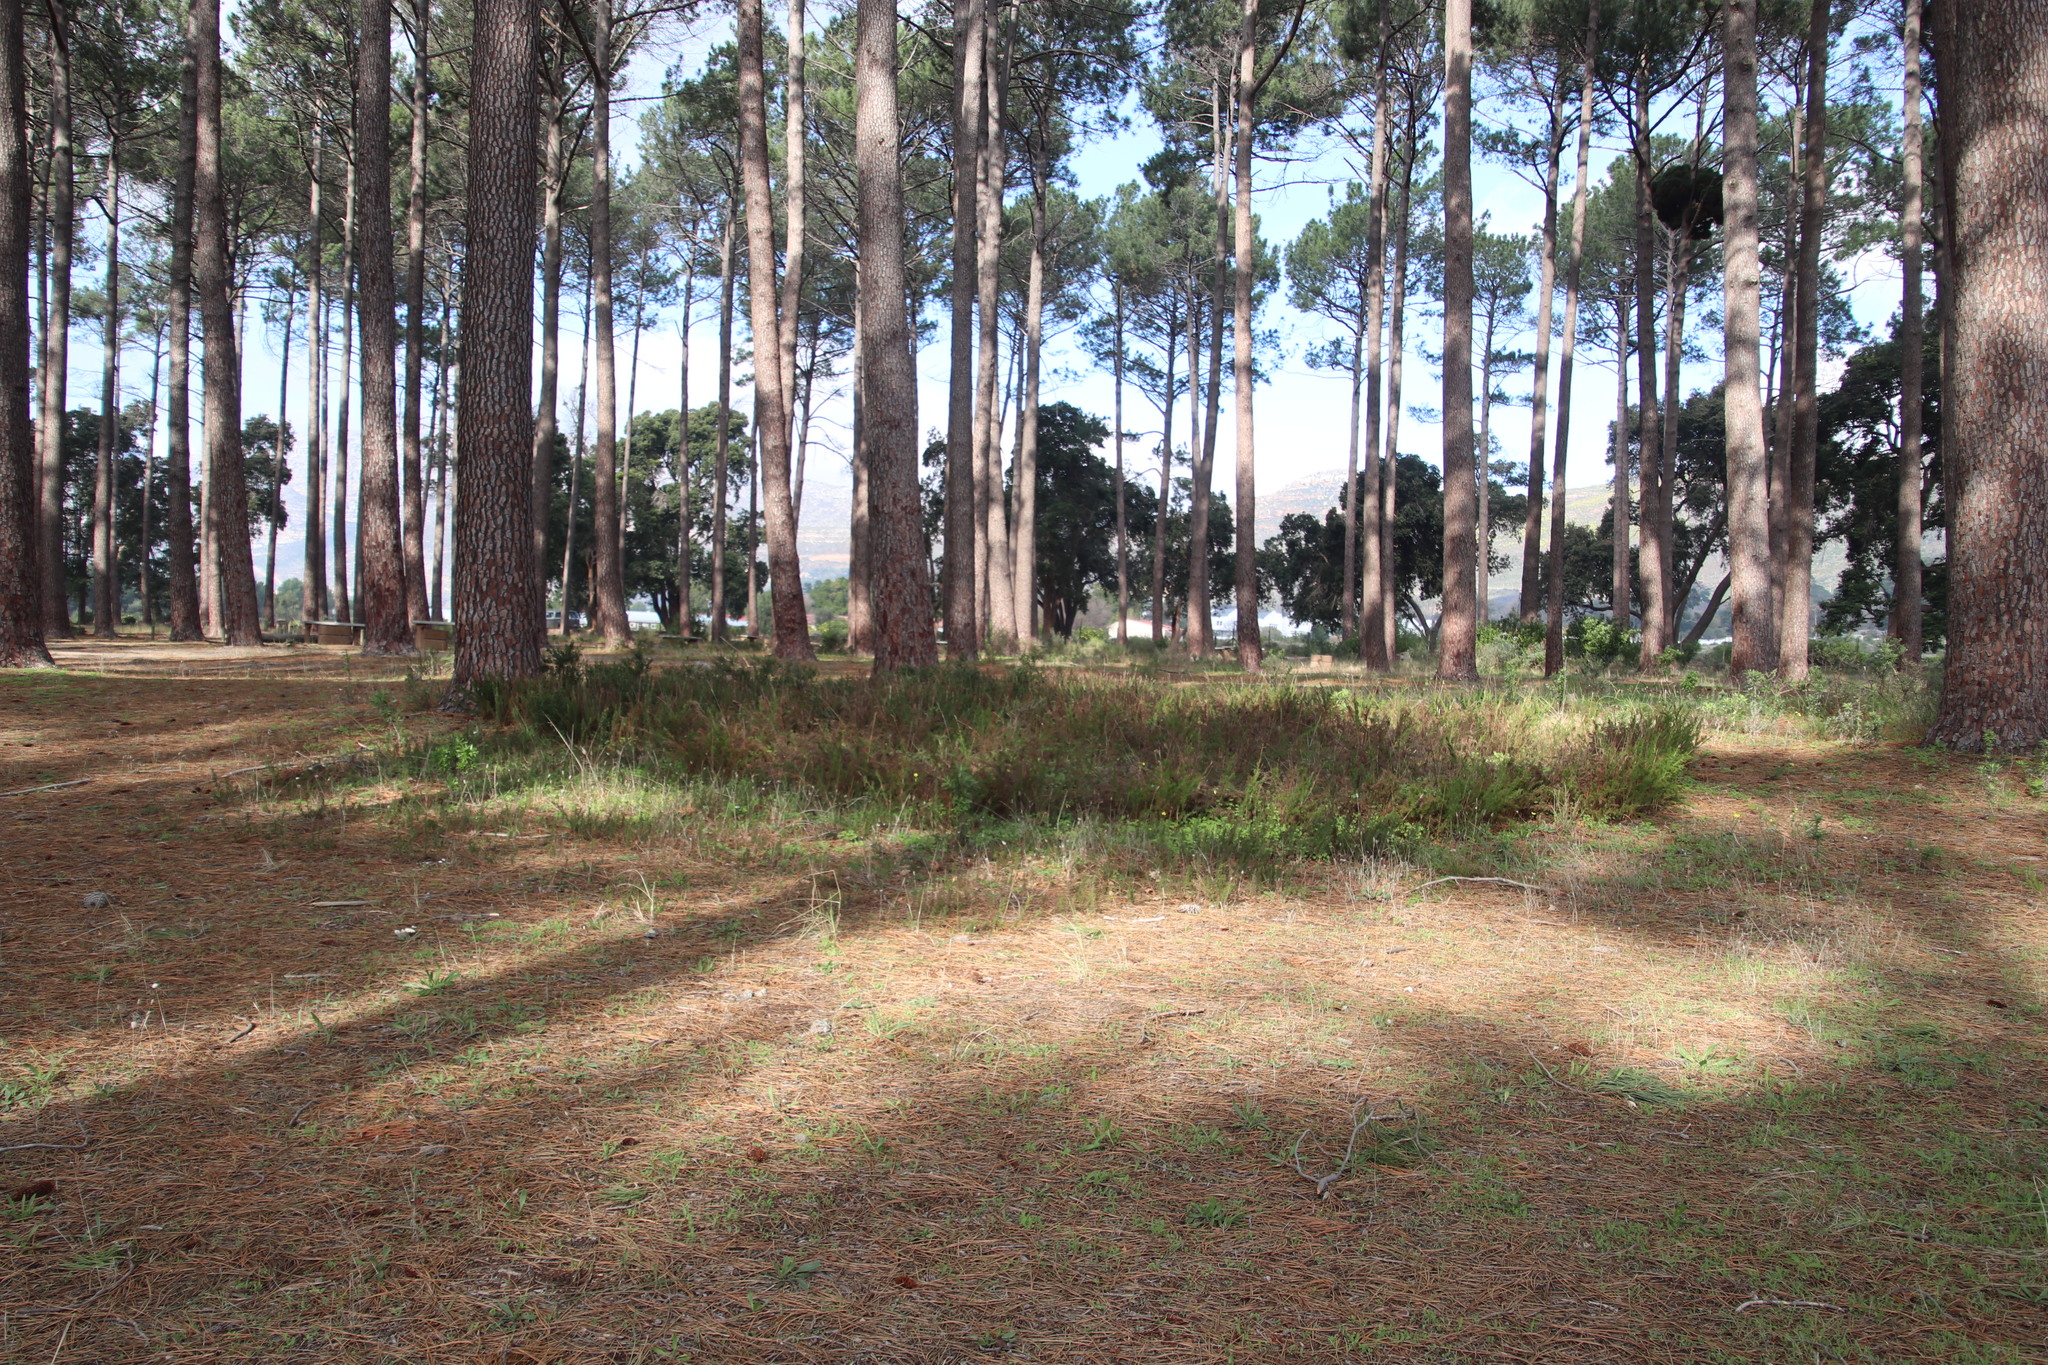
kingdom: Plantae
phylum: Tracheophyta
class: Liliopsida
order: Poales
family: Restionaceae
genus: Thamnochortus
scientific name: Thamnochortus fruticosus
